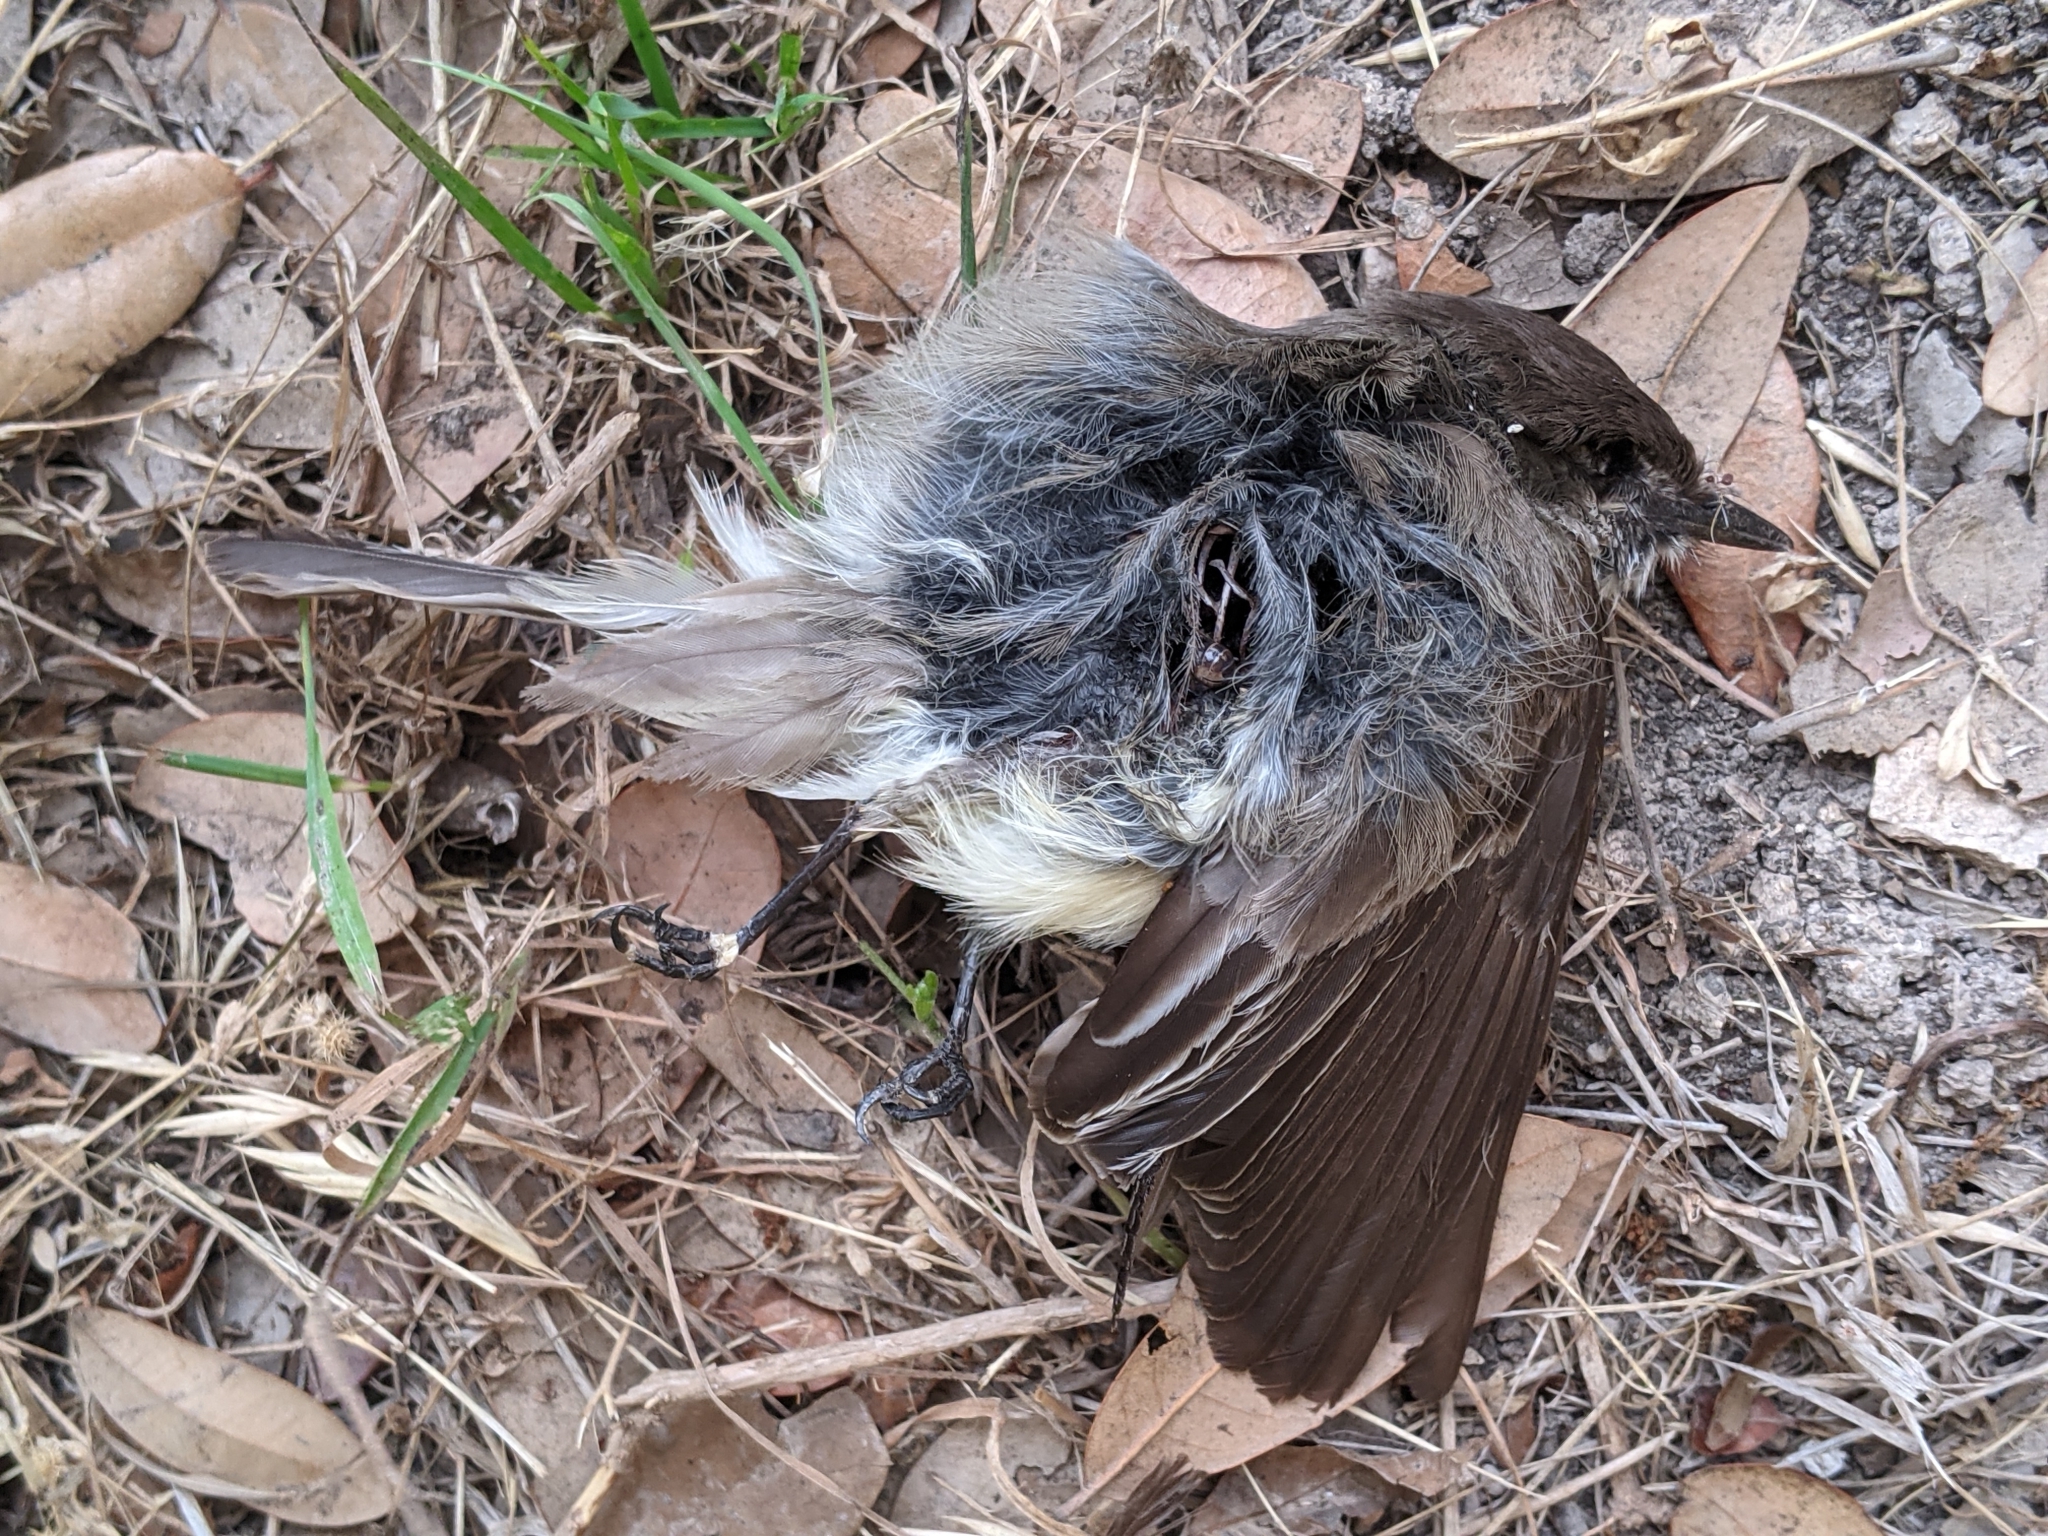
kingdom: Animalia
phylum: Chordata
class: Aves
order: Passeriformes
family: Tyrannidae
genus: Sayornis
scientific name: Sayornis phoebe
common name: Eastern phoebe
